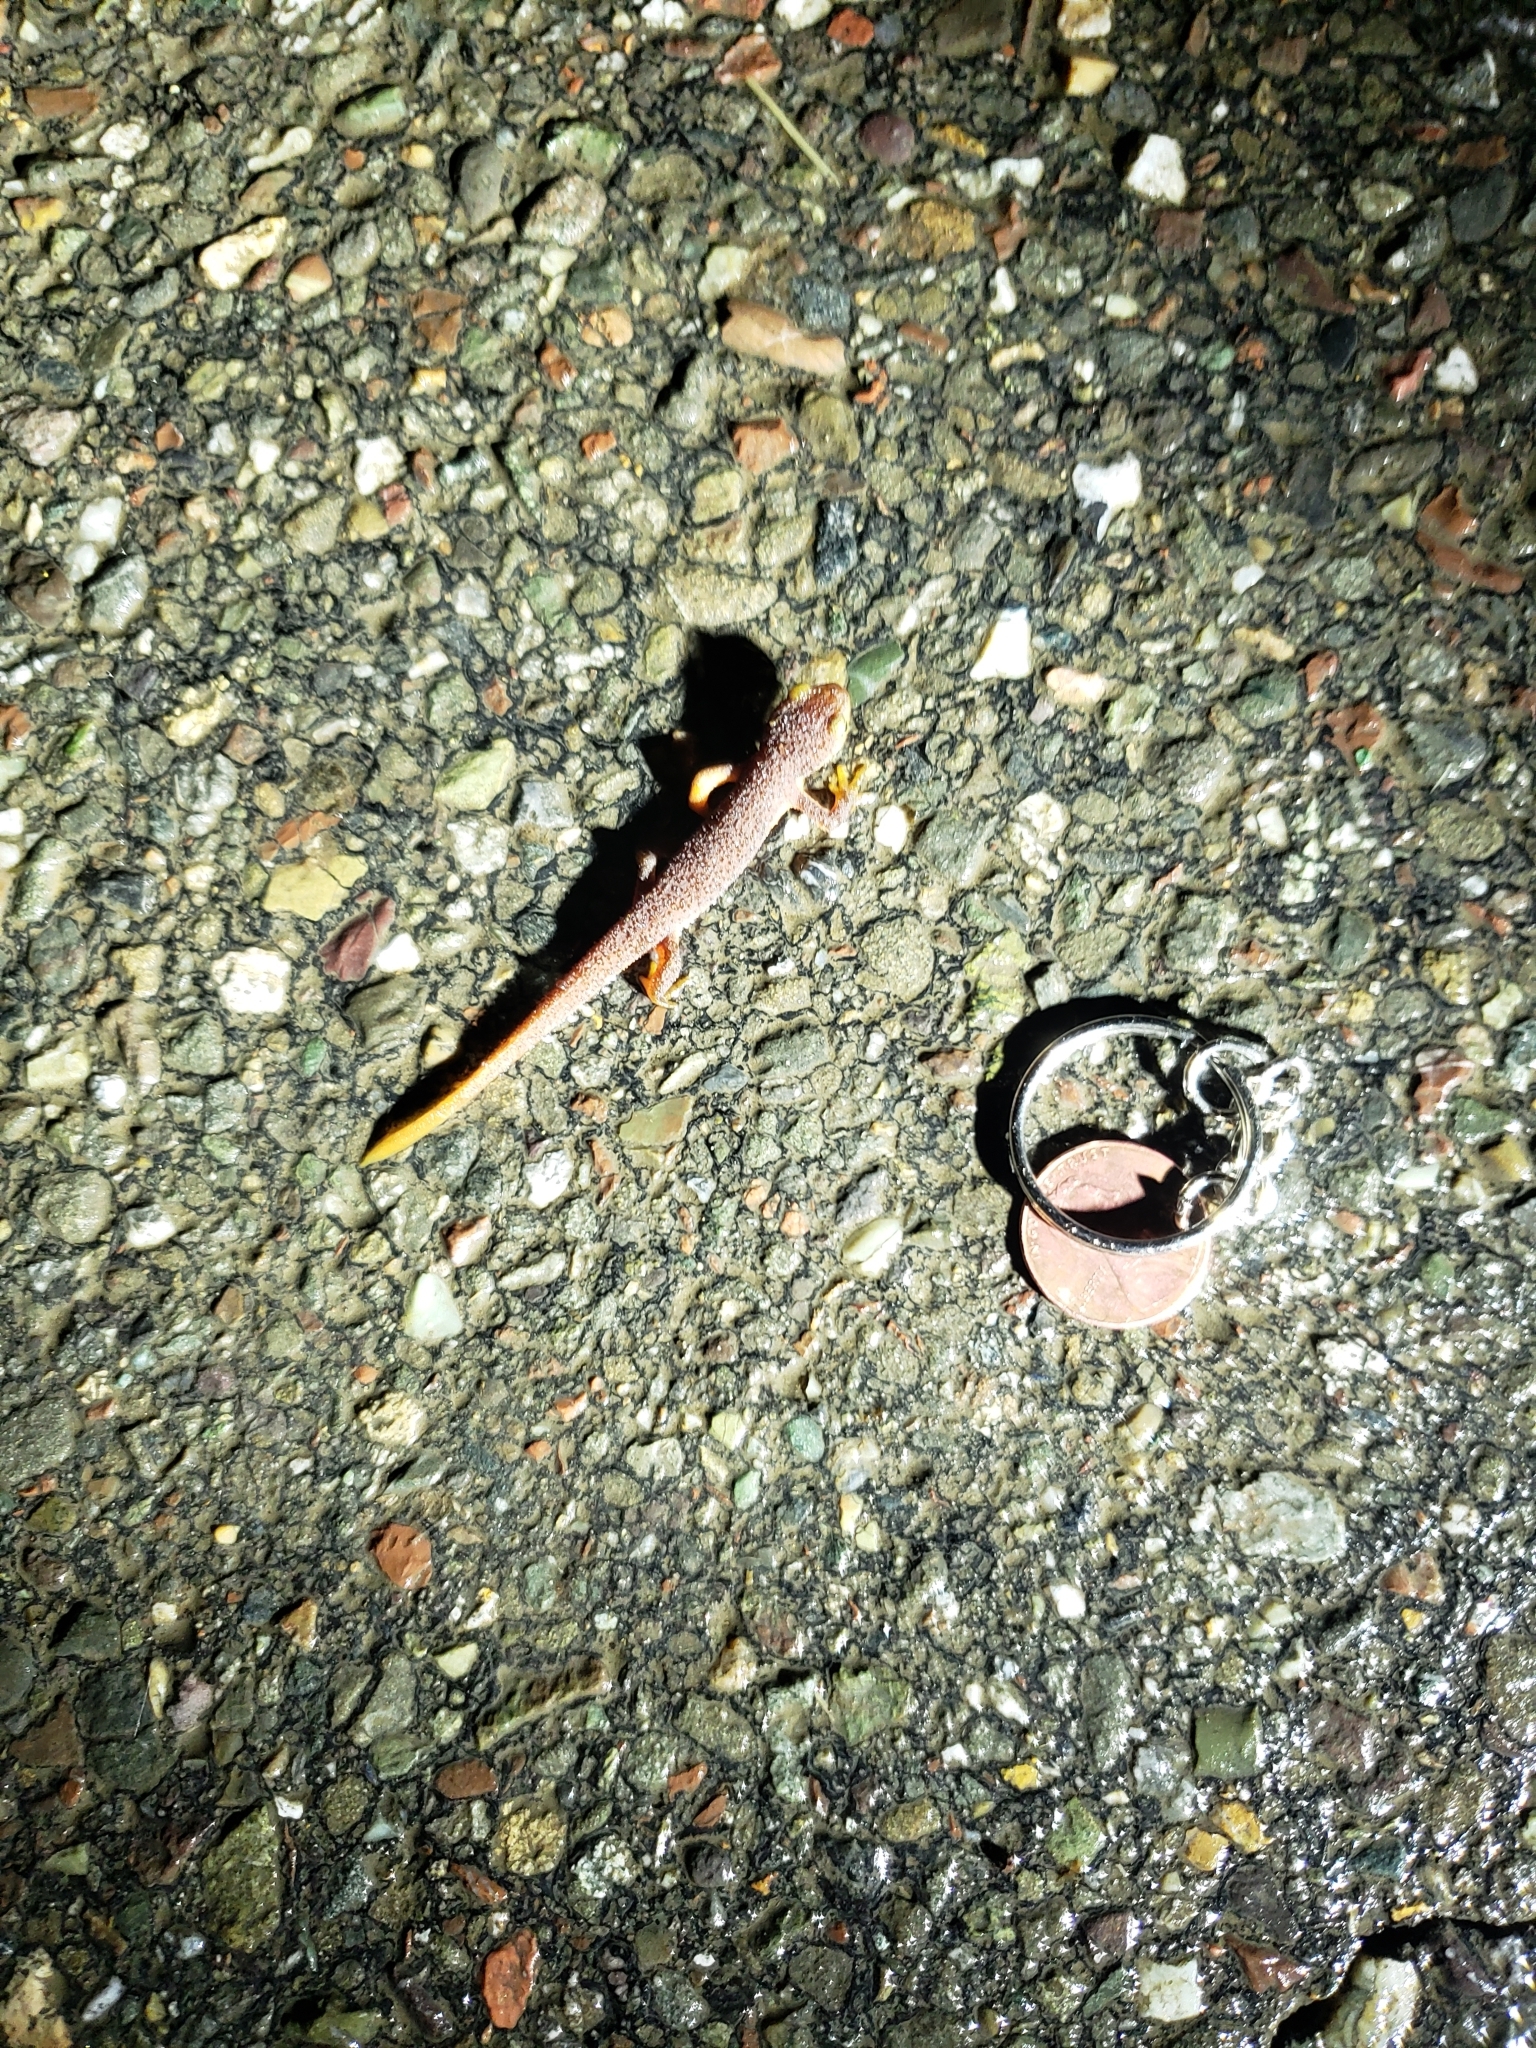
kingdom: Animalia
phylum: Chordata
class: Amphibia
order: Caudata
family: Salamandridae
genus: Taricha
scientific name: Taricha torosa
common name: California newt
